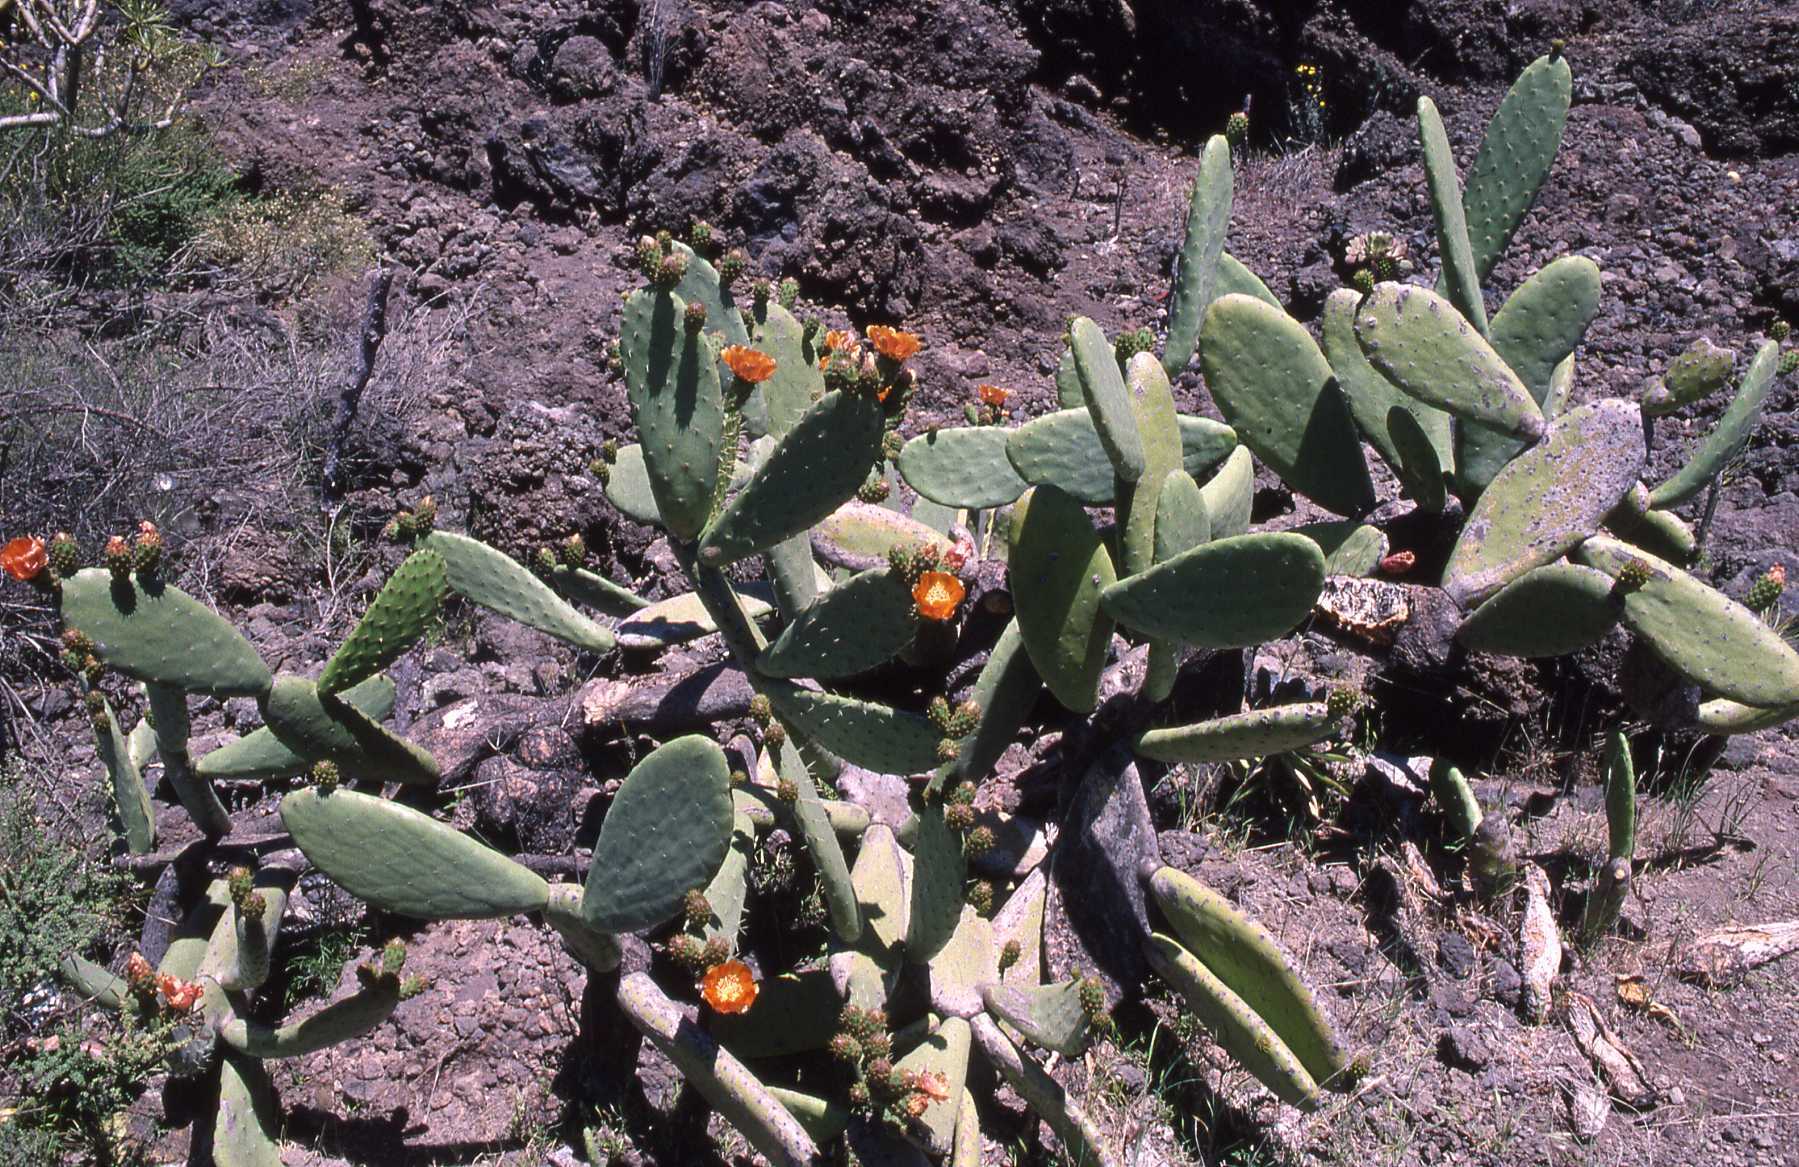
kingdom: Plantae
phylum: Tracheophyta
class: Magnoliopsida
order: Caryophyllales
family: Cactaceae
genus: Opuntia
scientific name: Opuntia tomentosa
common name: Woollyjoint pricklypear
